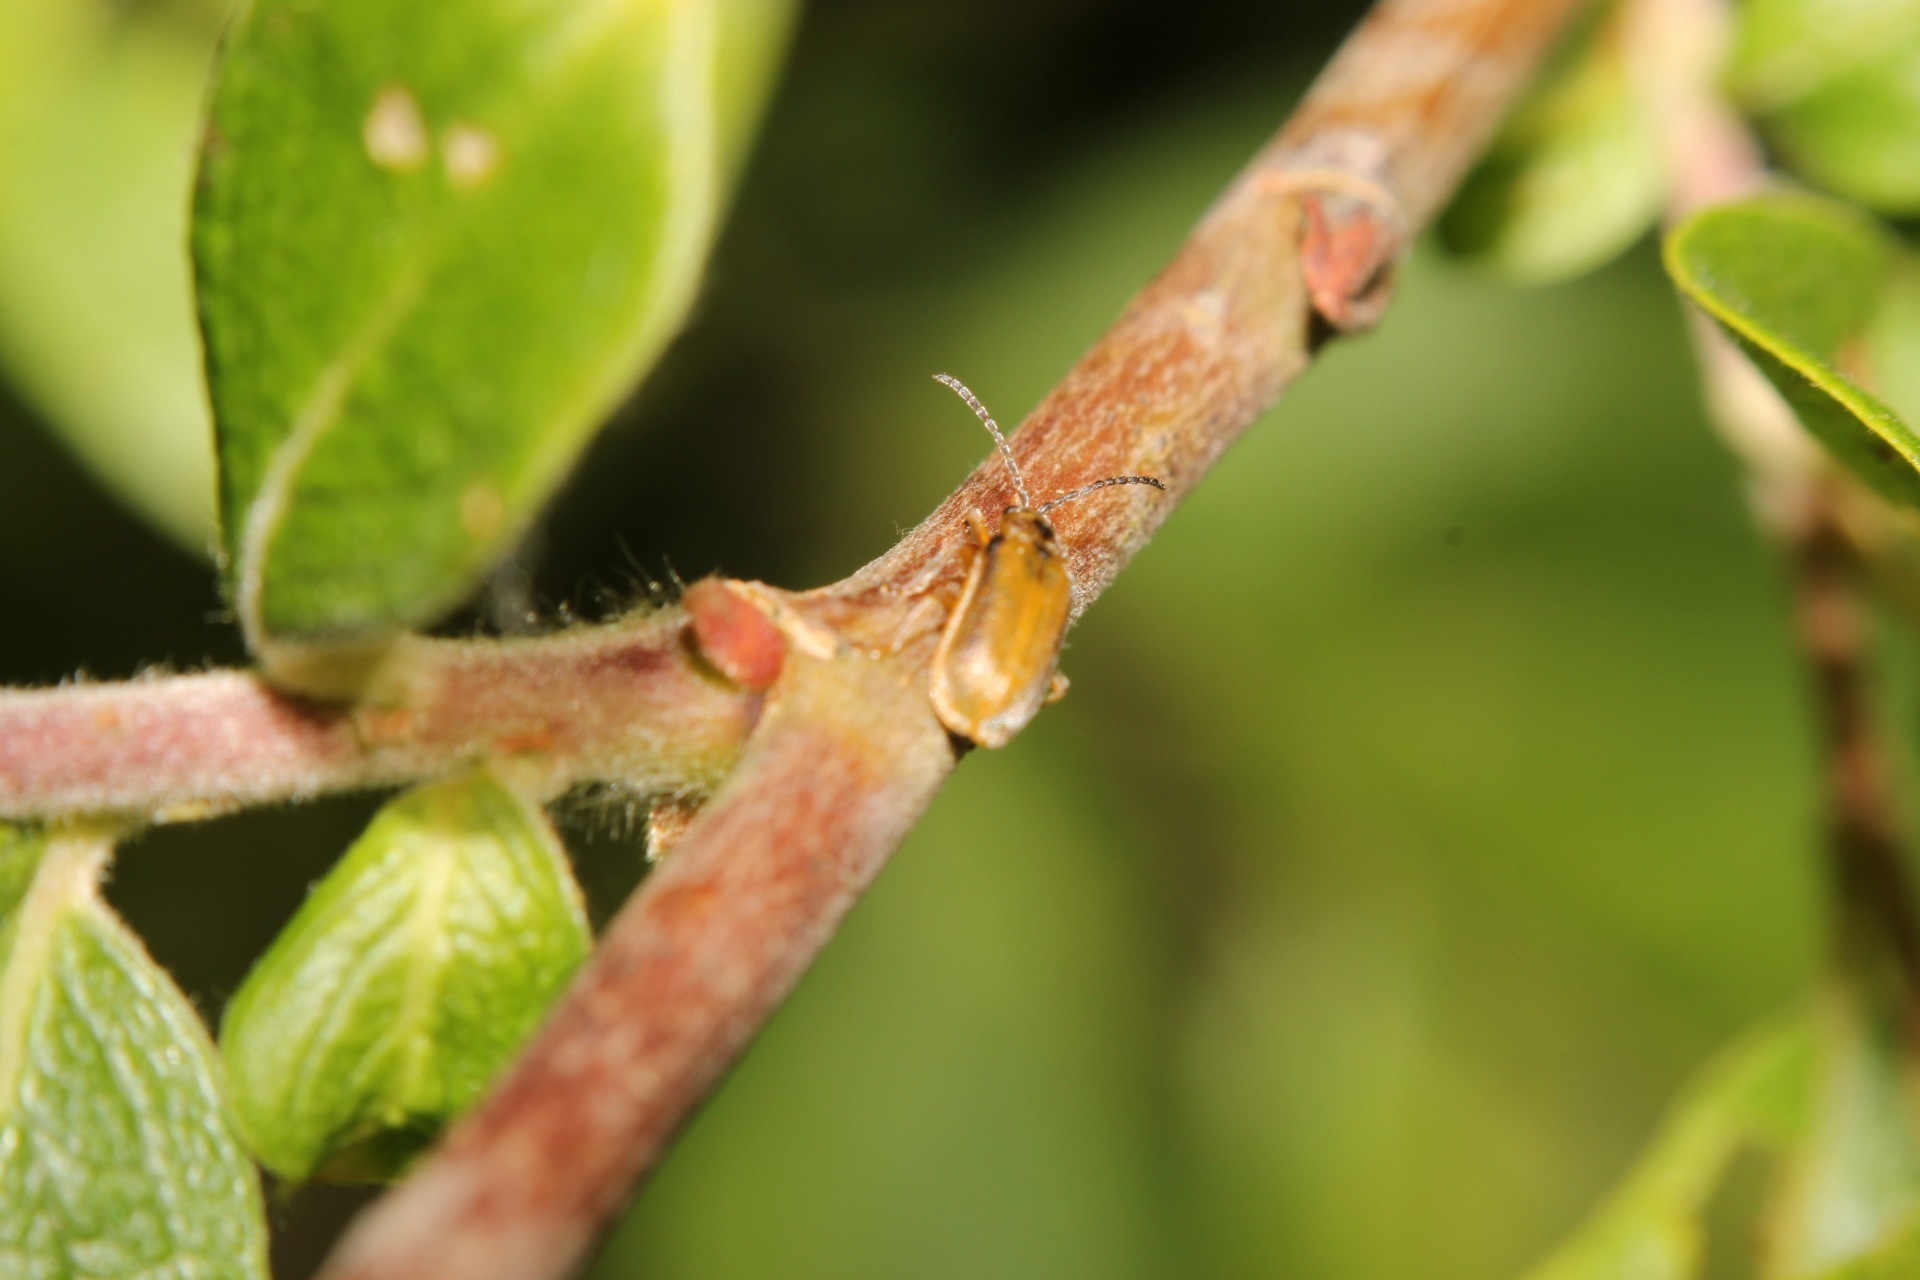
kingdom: Animalia
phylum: Arthropoda
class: Insecta
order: Coleoptera
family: Chrysomelidae
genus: Galerucella
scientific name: Galerucella lineola
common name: Brown willow beetle
